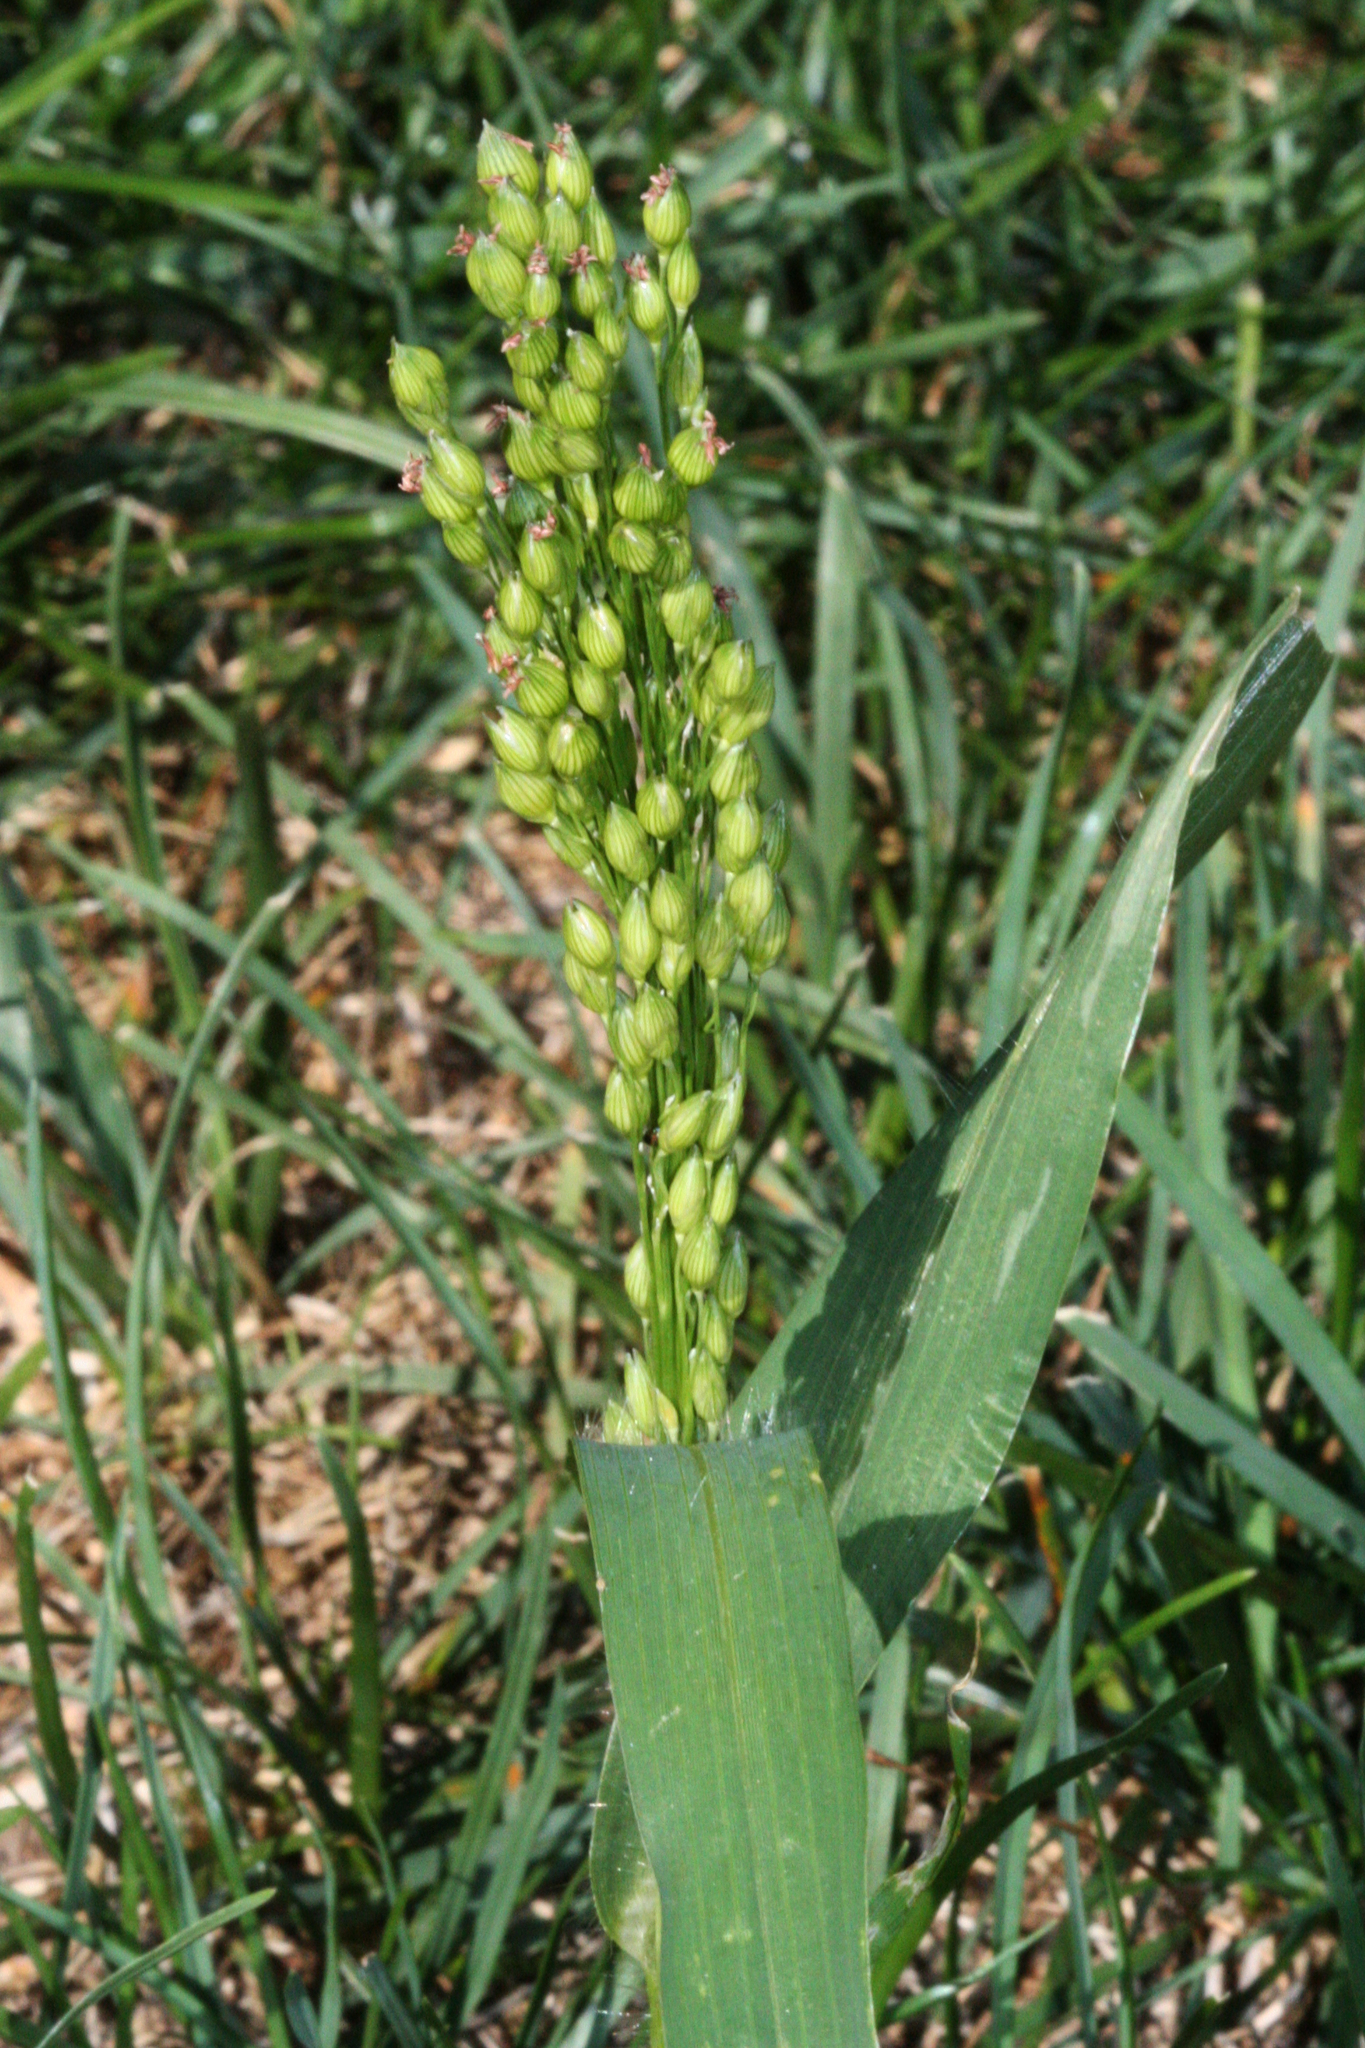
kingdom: Plantae
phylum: Tracheophyta
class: Liliopsida
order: Poales
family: Poaceae
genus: Sorghum
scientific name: Sorghum bicolor
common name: Sorghum
